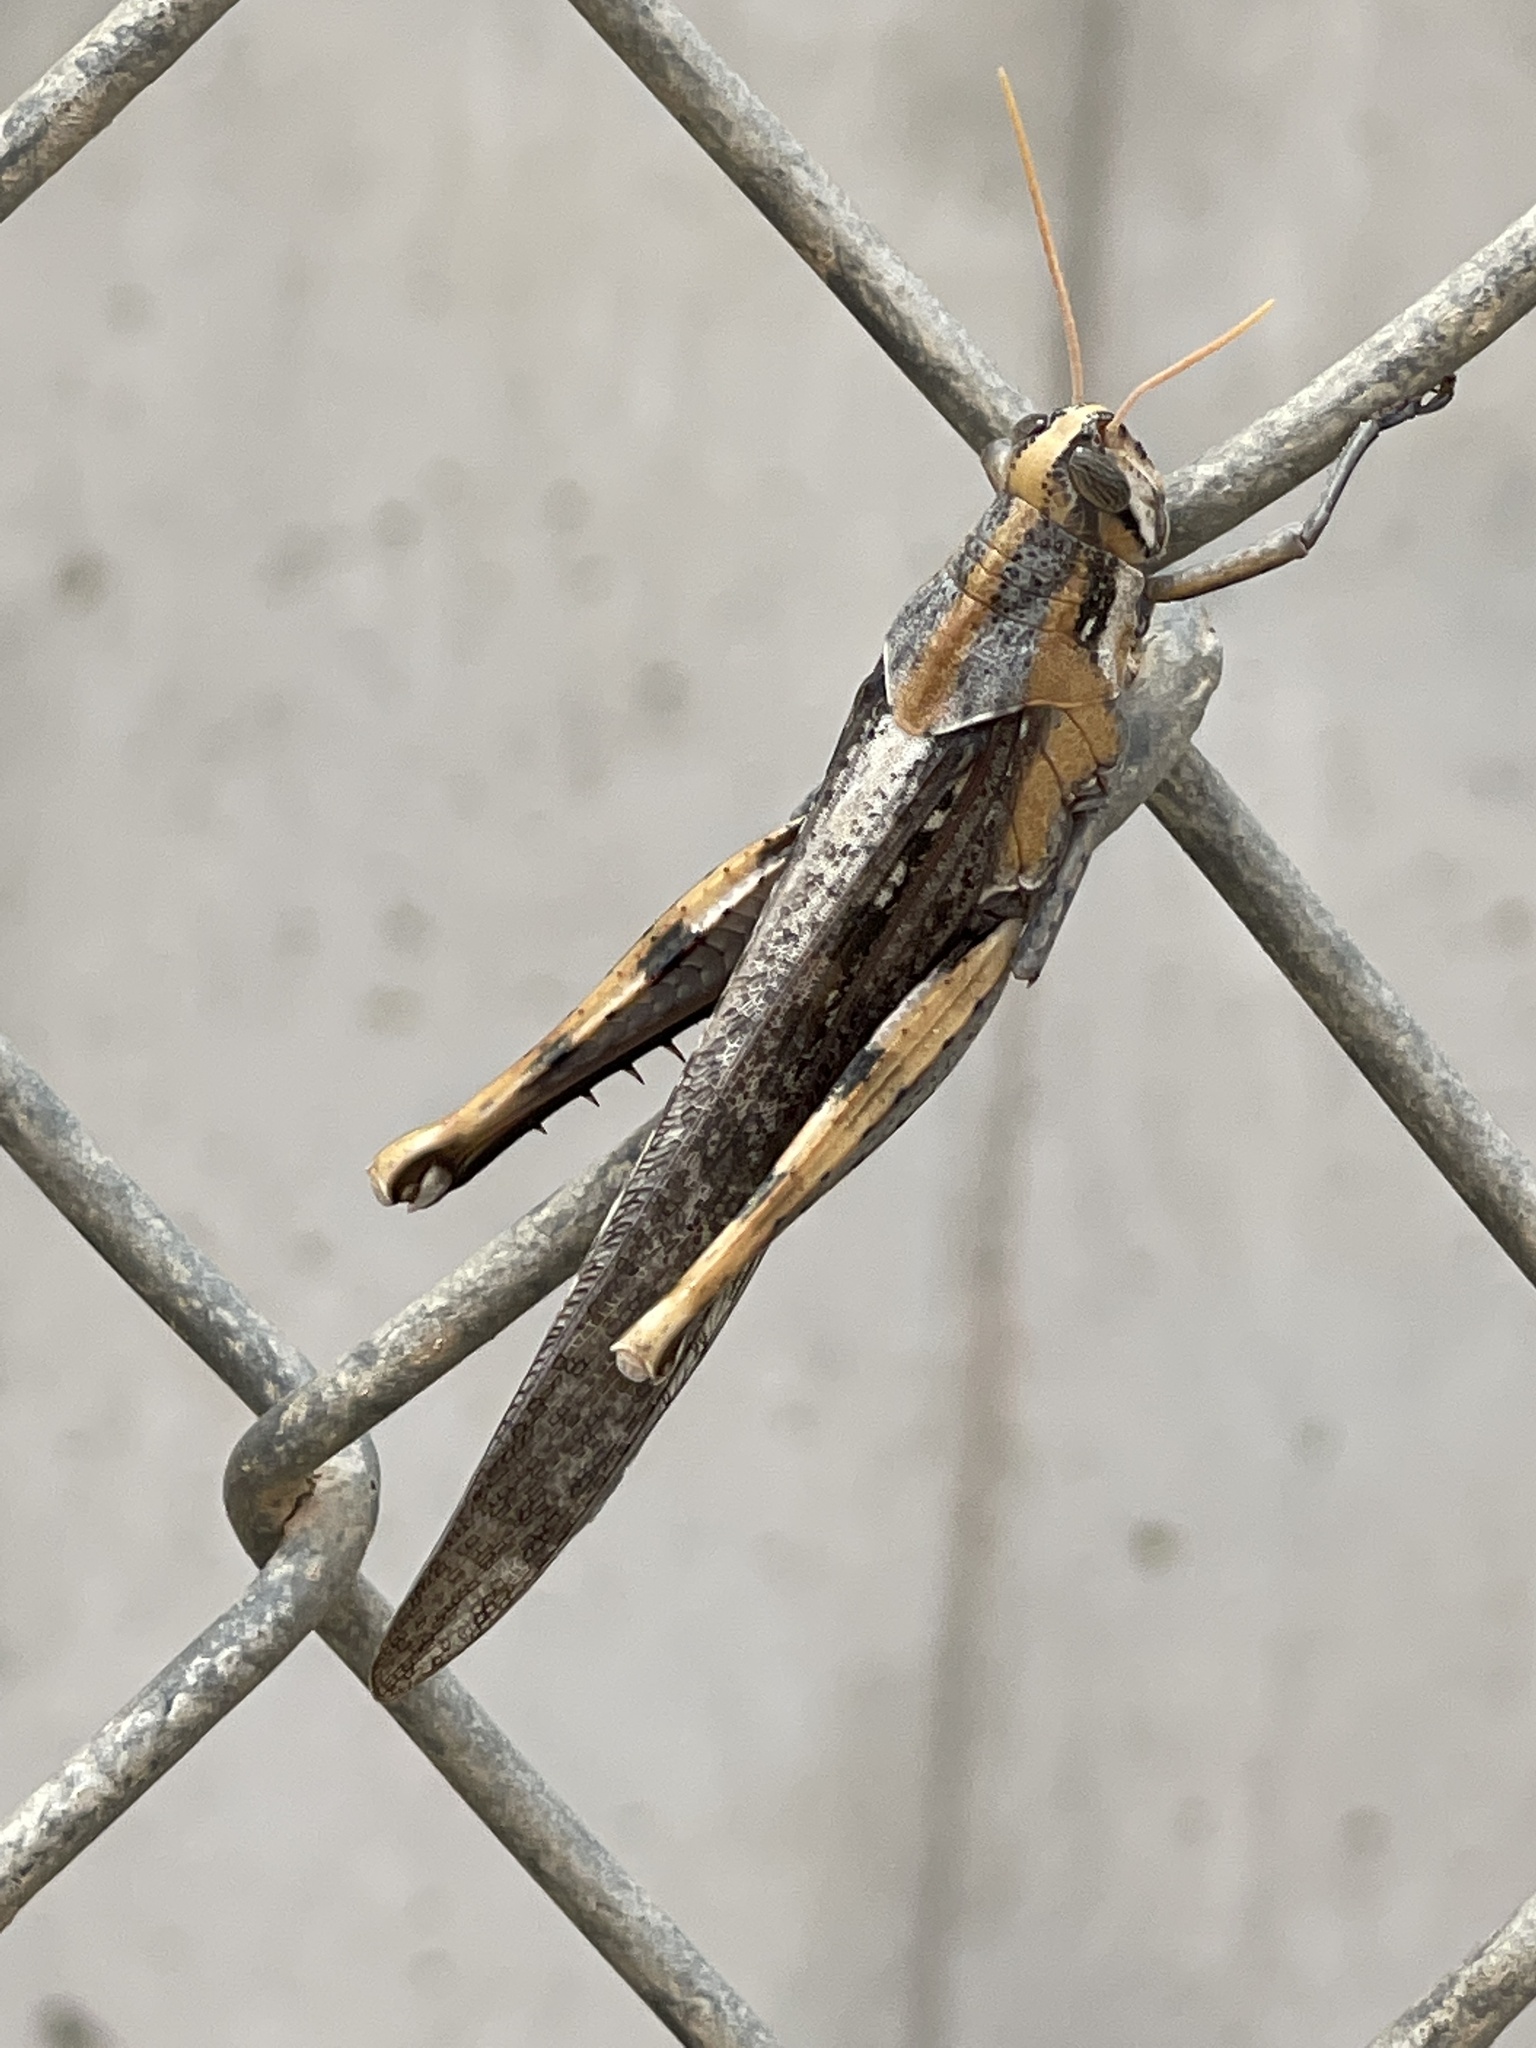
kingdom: Animalia
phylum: Arthropoda
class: Insecta
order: Orthoptera
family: Acrididae
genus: Schistocerca
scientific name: Schistocerca nitens
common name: Vagrant grasshopper
